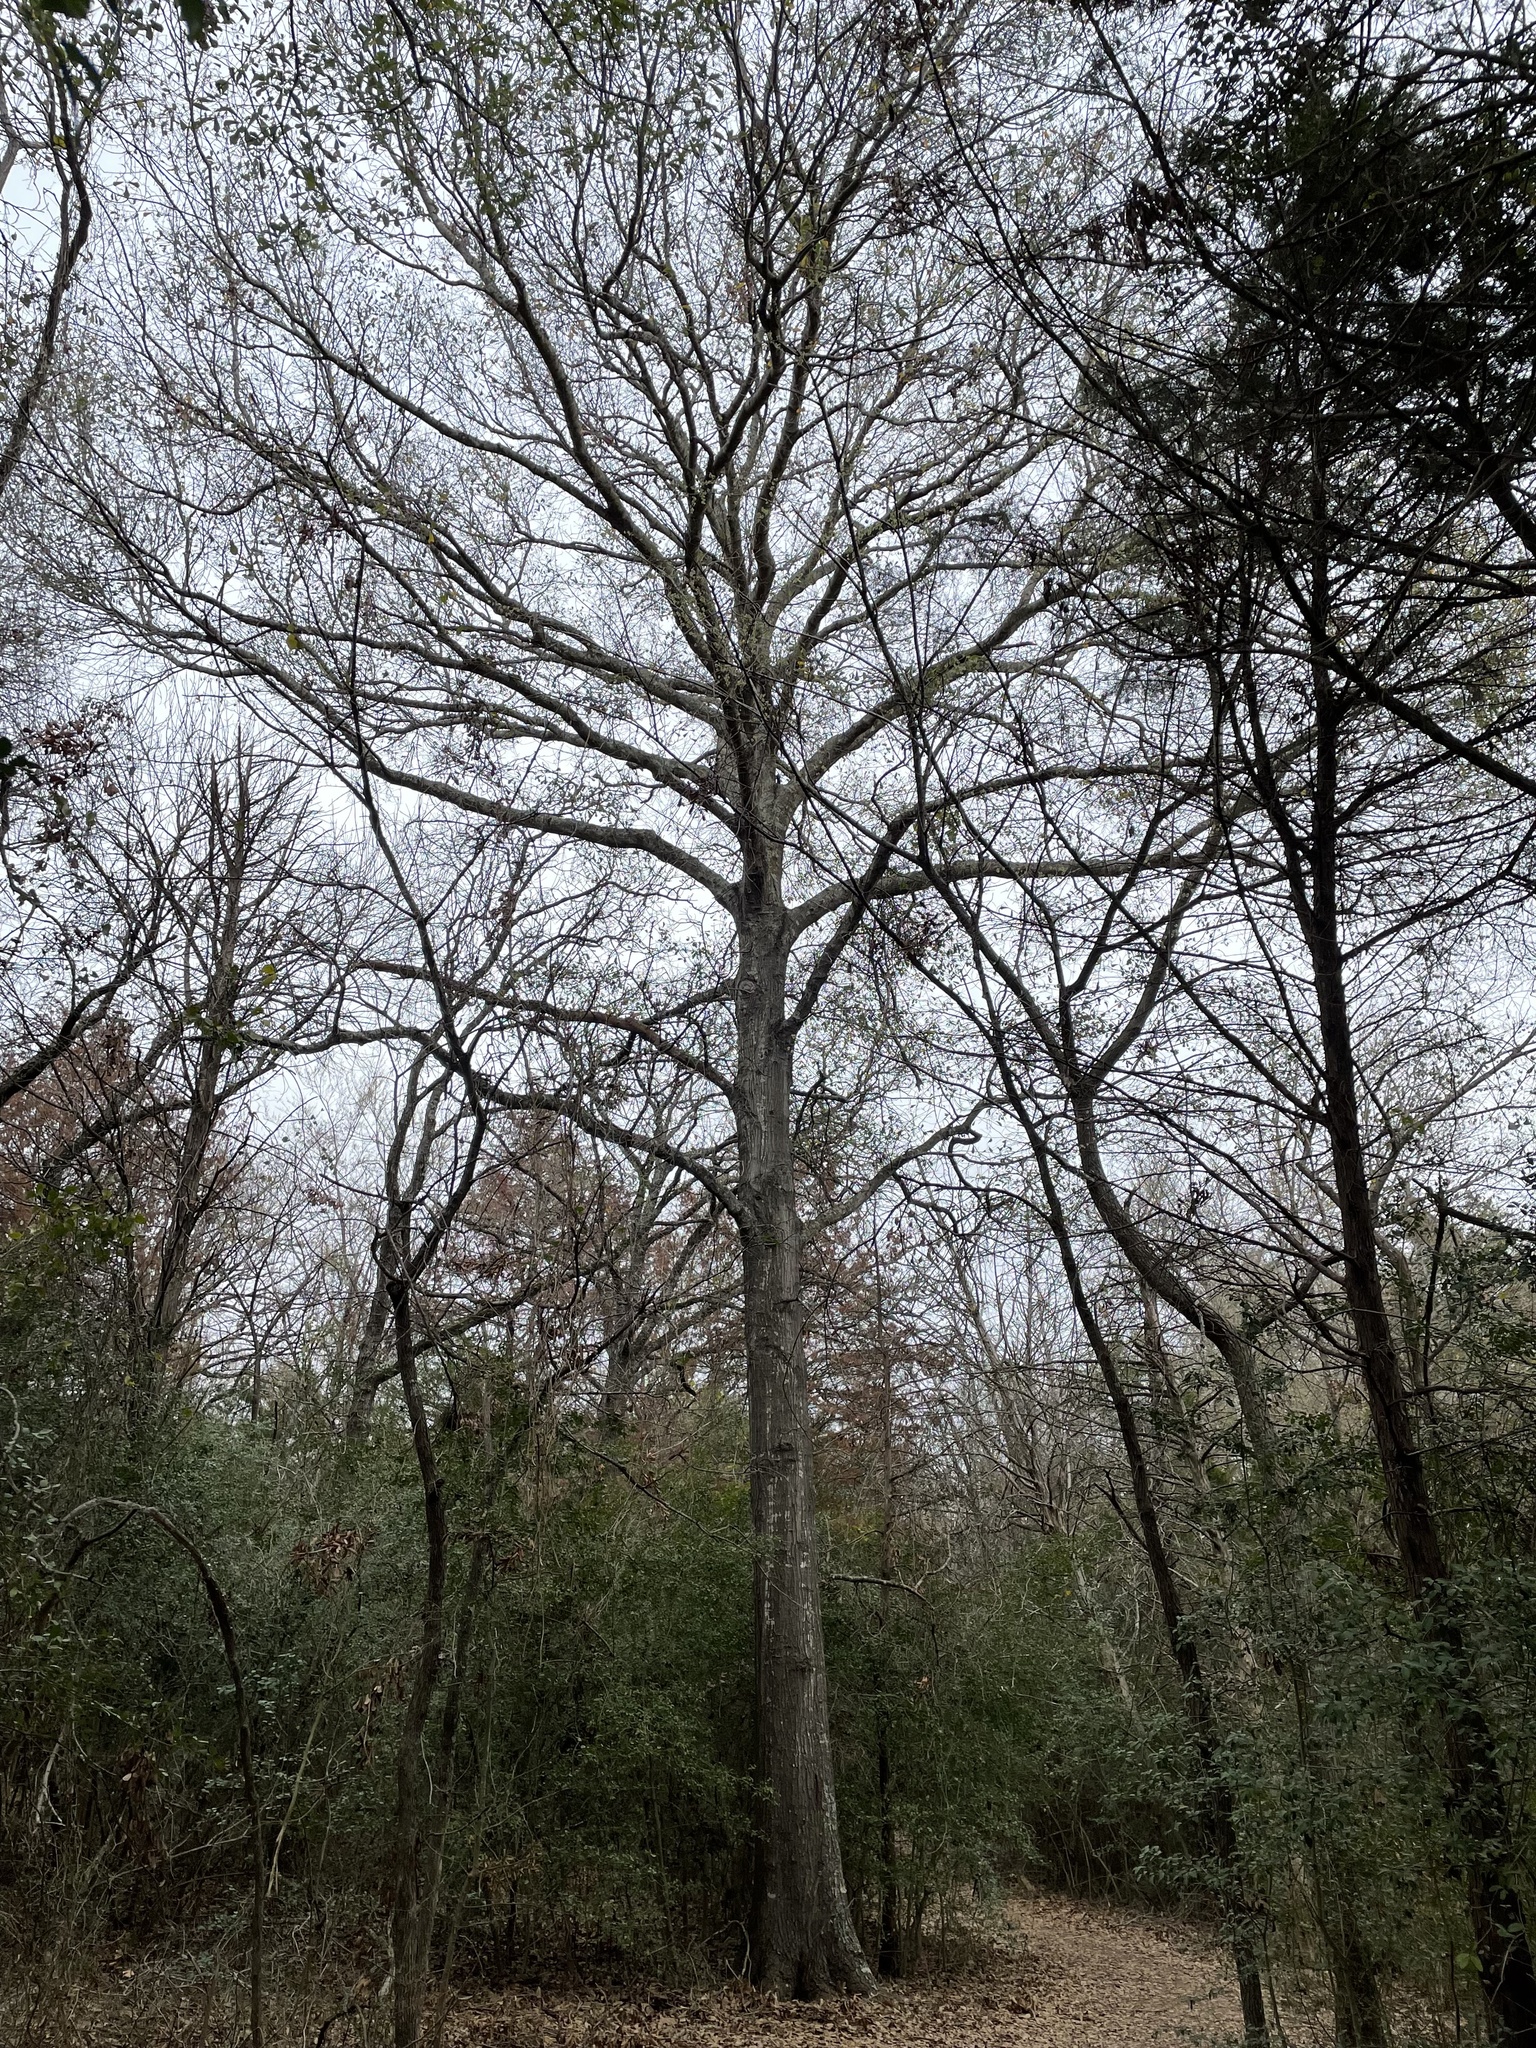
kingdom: Plantae
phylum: Tracheophyta
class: Magnoliopsida
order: Fagales
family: Fagaceae
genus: Quercus
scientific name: Quercus nigra
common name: Water oak
